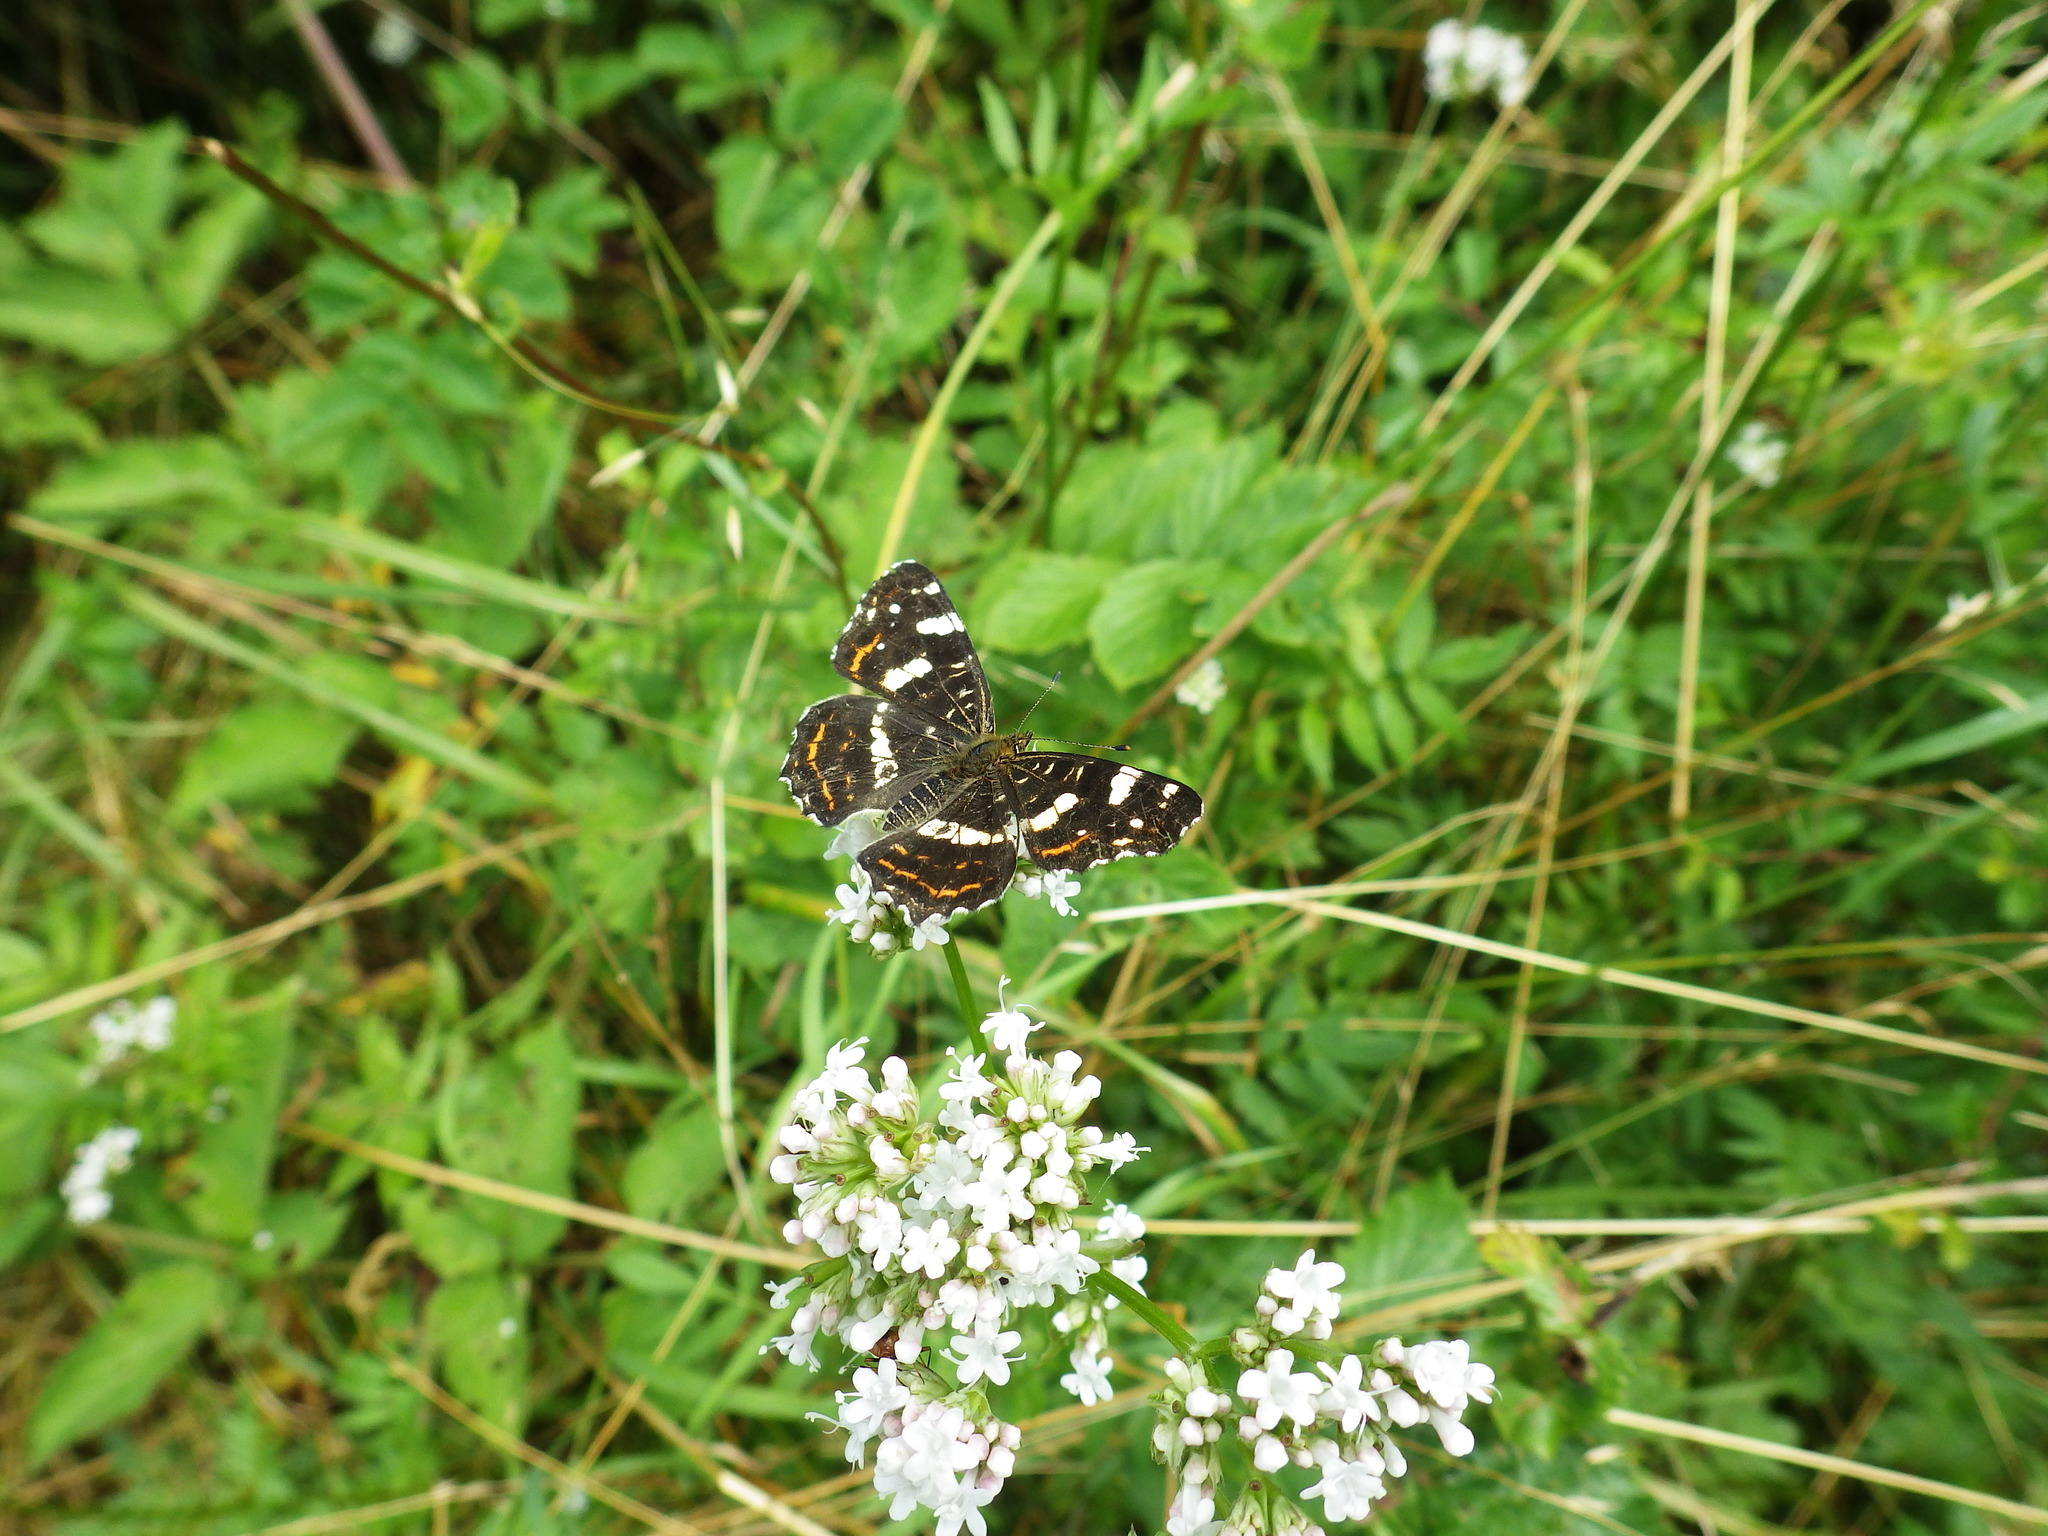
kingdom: Animalia
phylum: Arthropoda
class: Insecta
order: Lepidoptera
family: Nymphalidae
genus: Araschnia
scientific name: Araschnia levana
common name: Map butterfly
